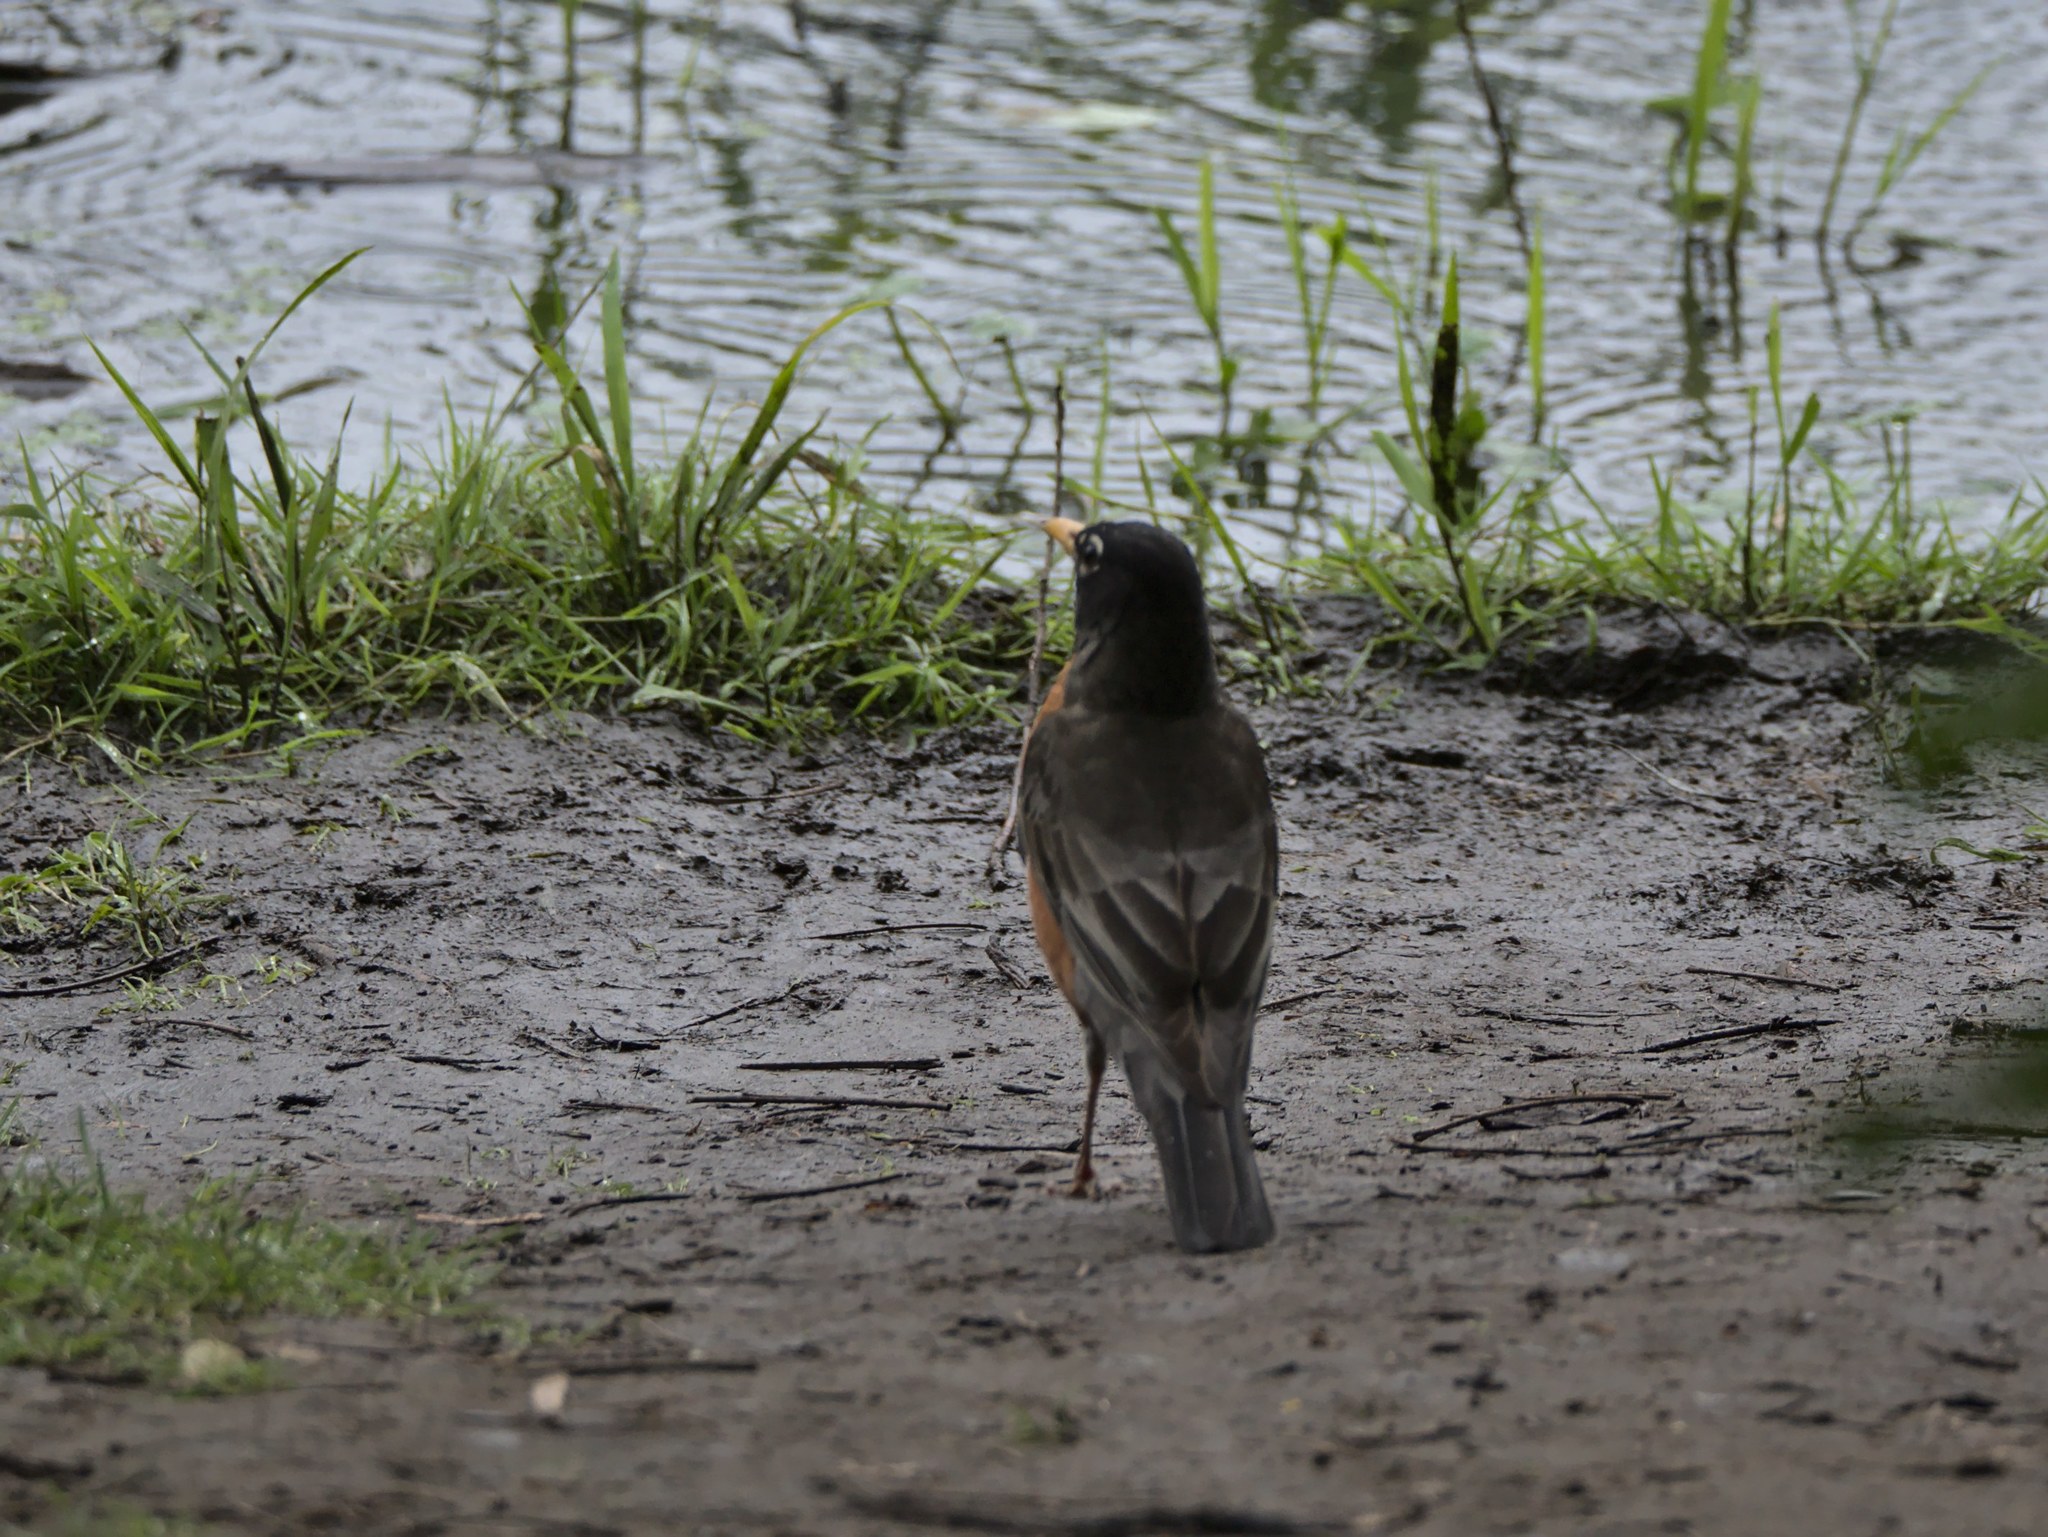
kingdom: Animalia
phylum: Chordata
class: Aves
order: Passeriformes
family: Turdidae
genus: Turdus
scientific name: Turdus migratorius
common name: American robin
